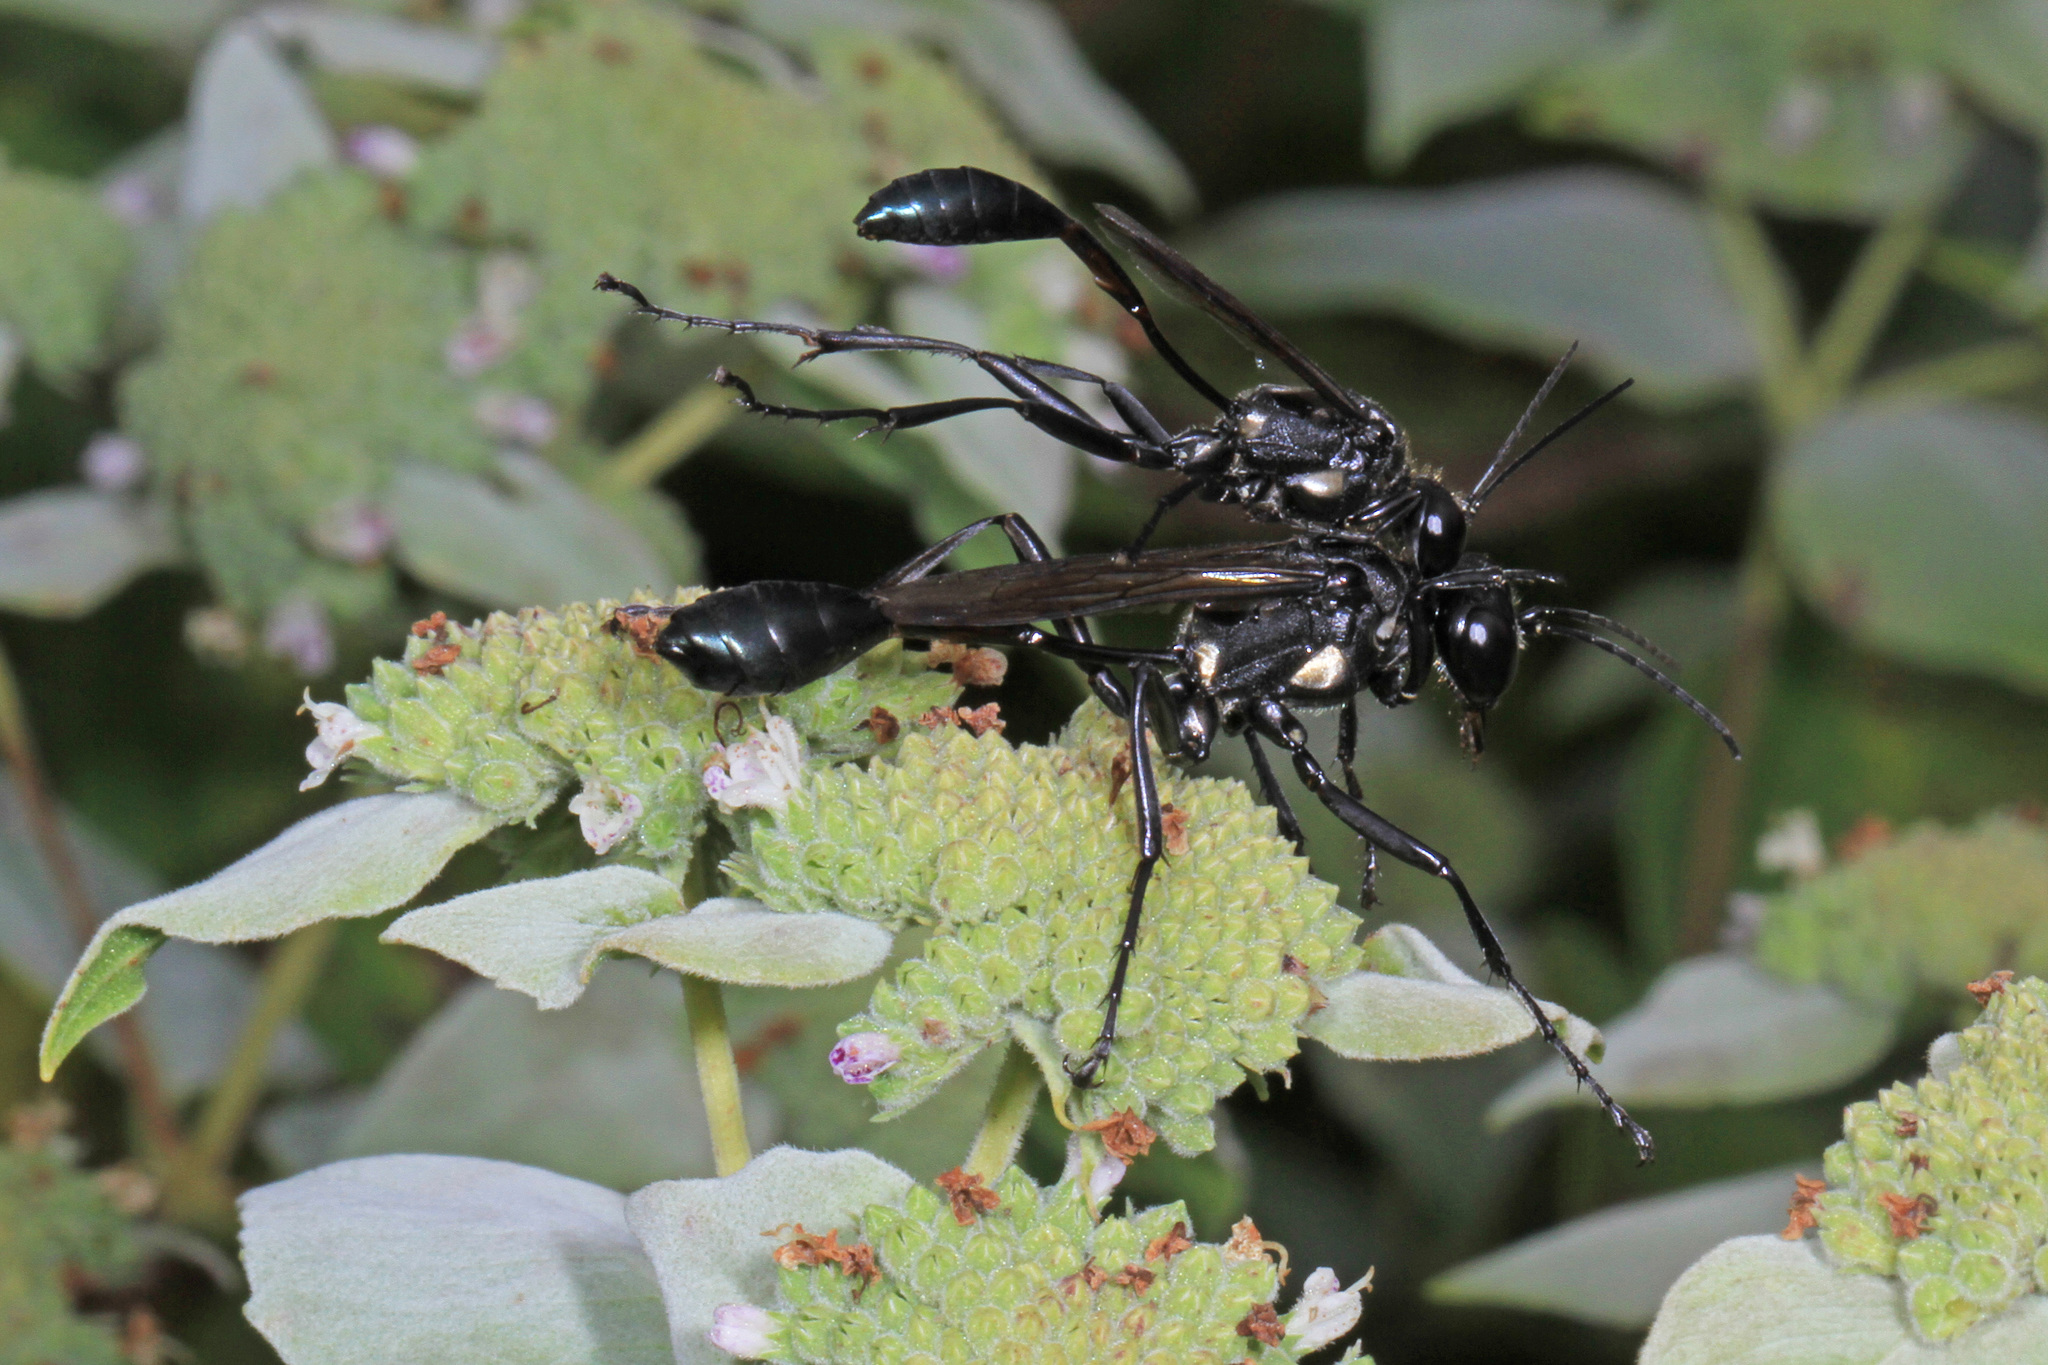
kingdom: Animalia
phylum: Arthropoda
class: Insecta
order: Hymenoptera
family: Sphecidae
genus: Eremnophila
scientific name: Eremnophila aureonotata
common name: Gold-marked thread-waisted wasp
